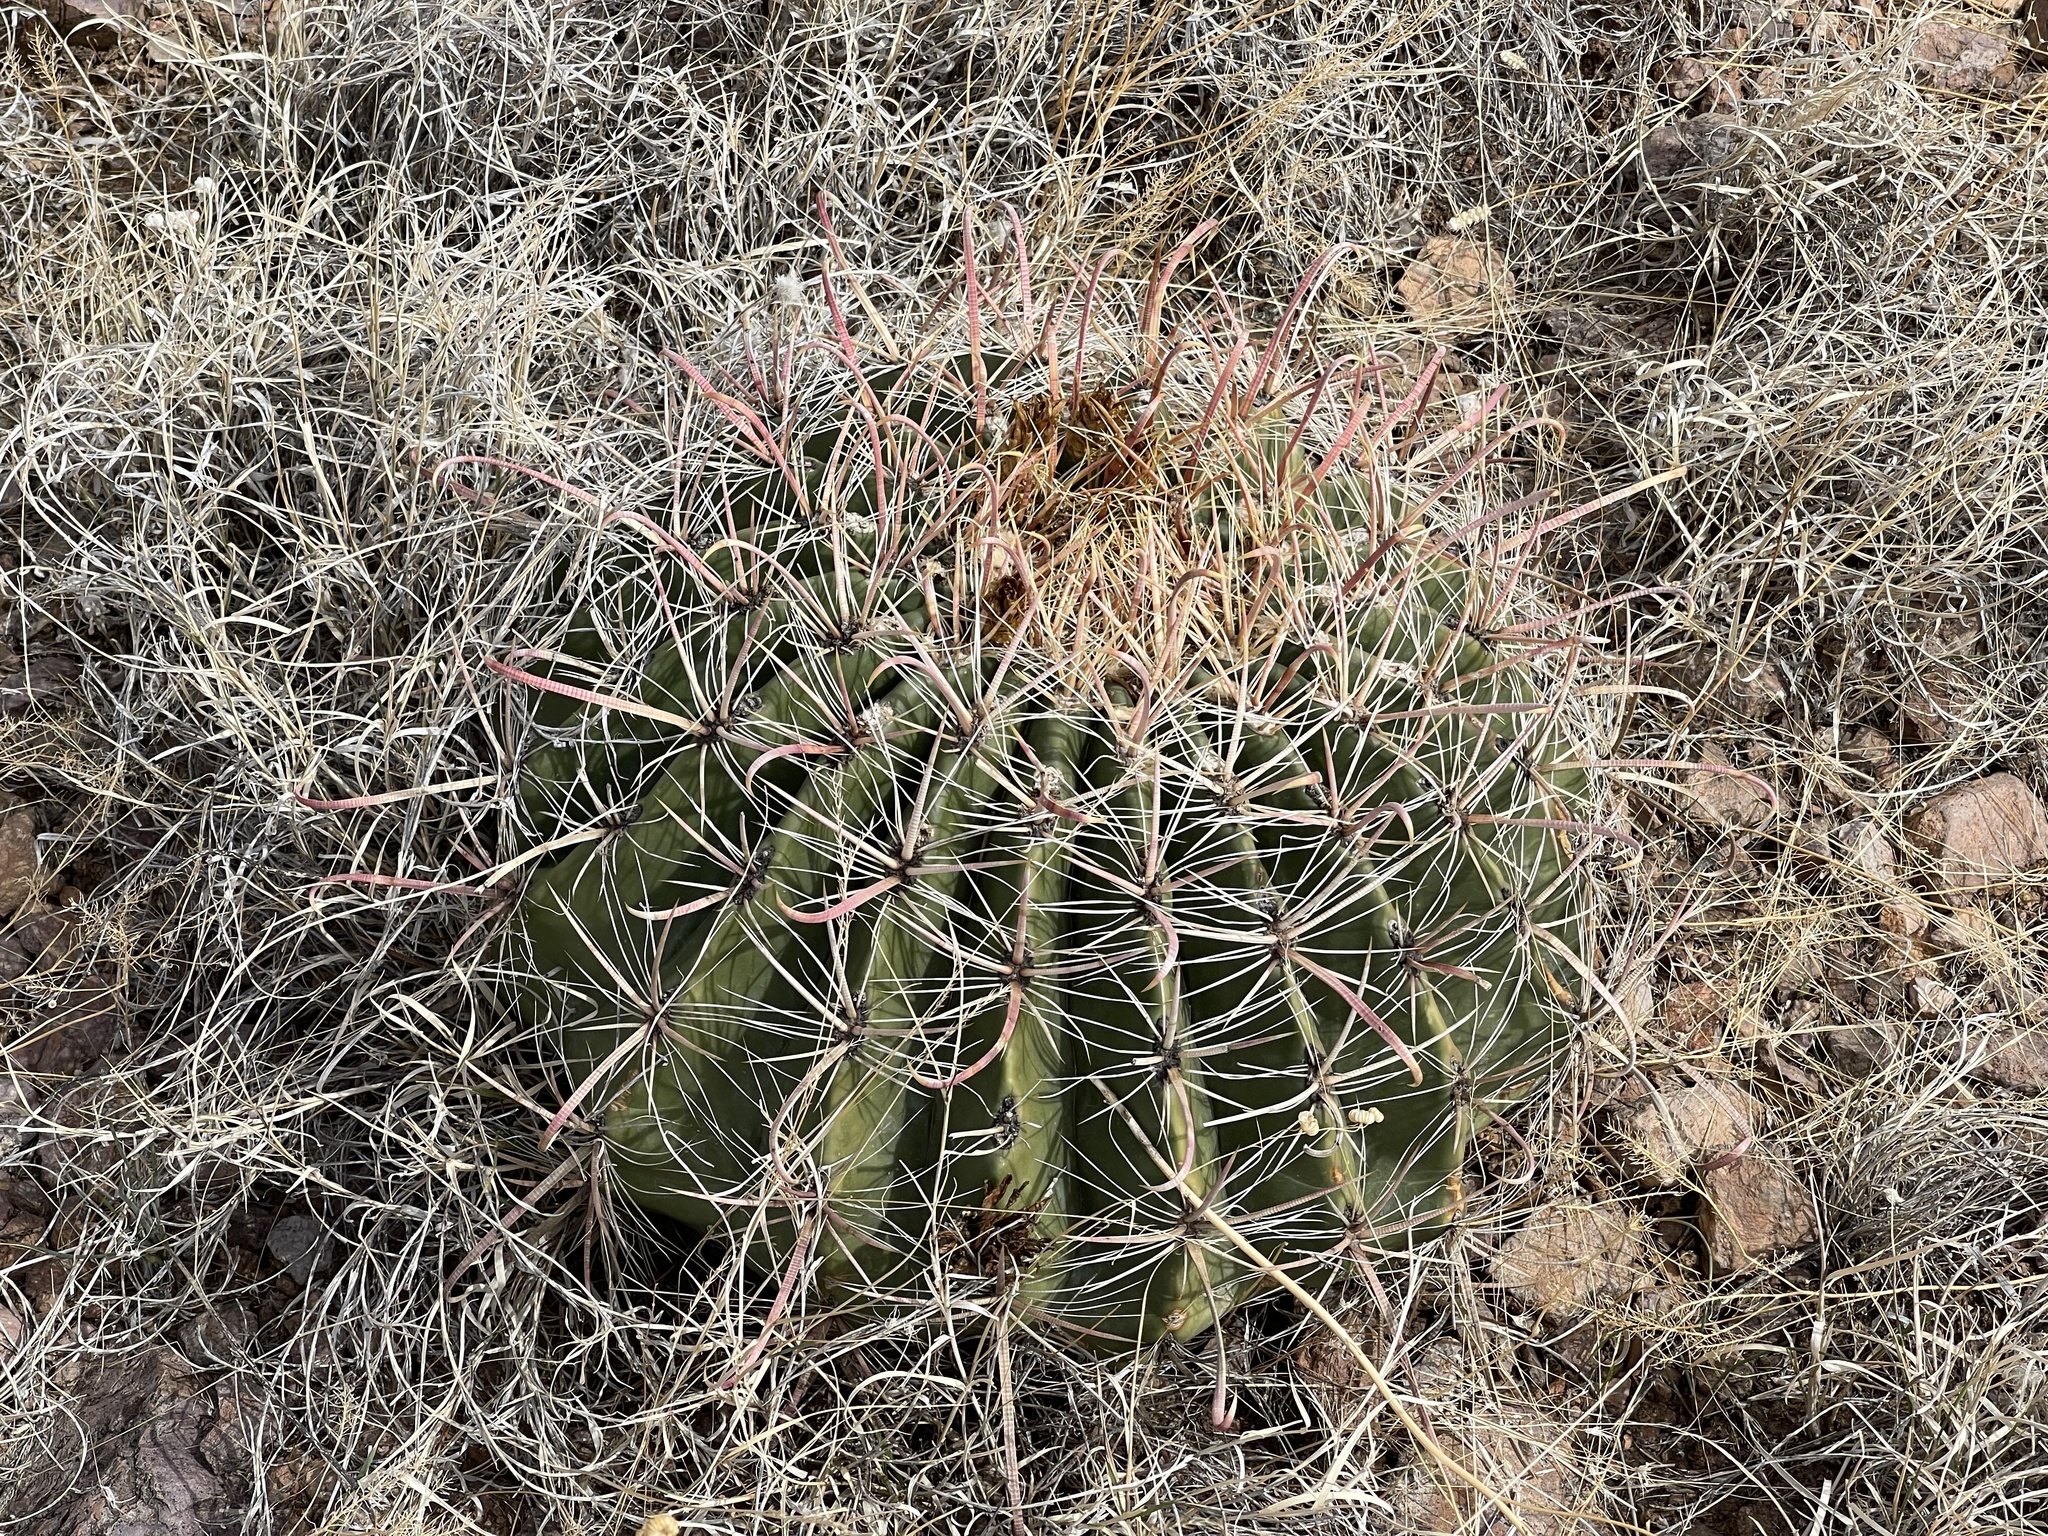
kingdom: Plantae
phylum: Tracheophyta
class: Magnoliopsida
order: Caryophyllales
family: Cactaceae
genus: Ferocactus
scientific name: Ferocactus wislizeni
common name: Candy barrel cactus
